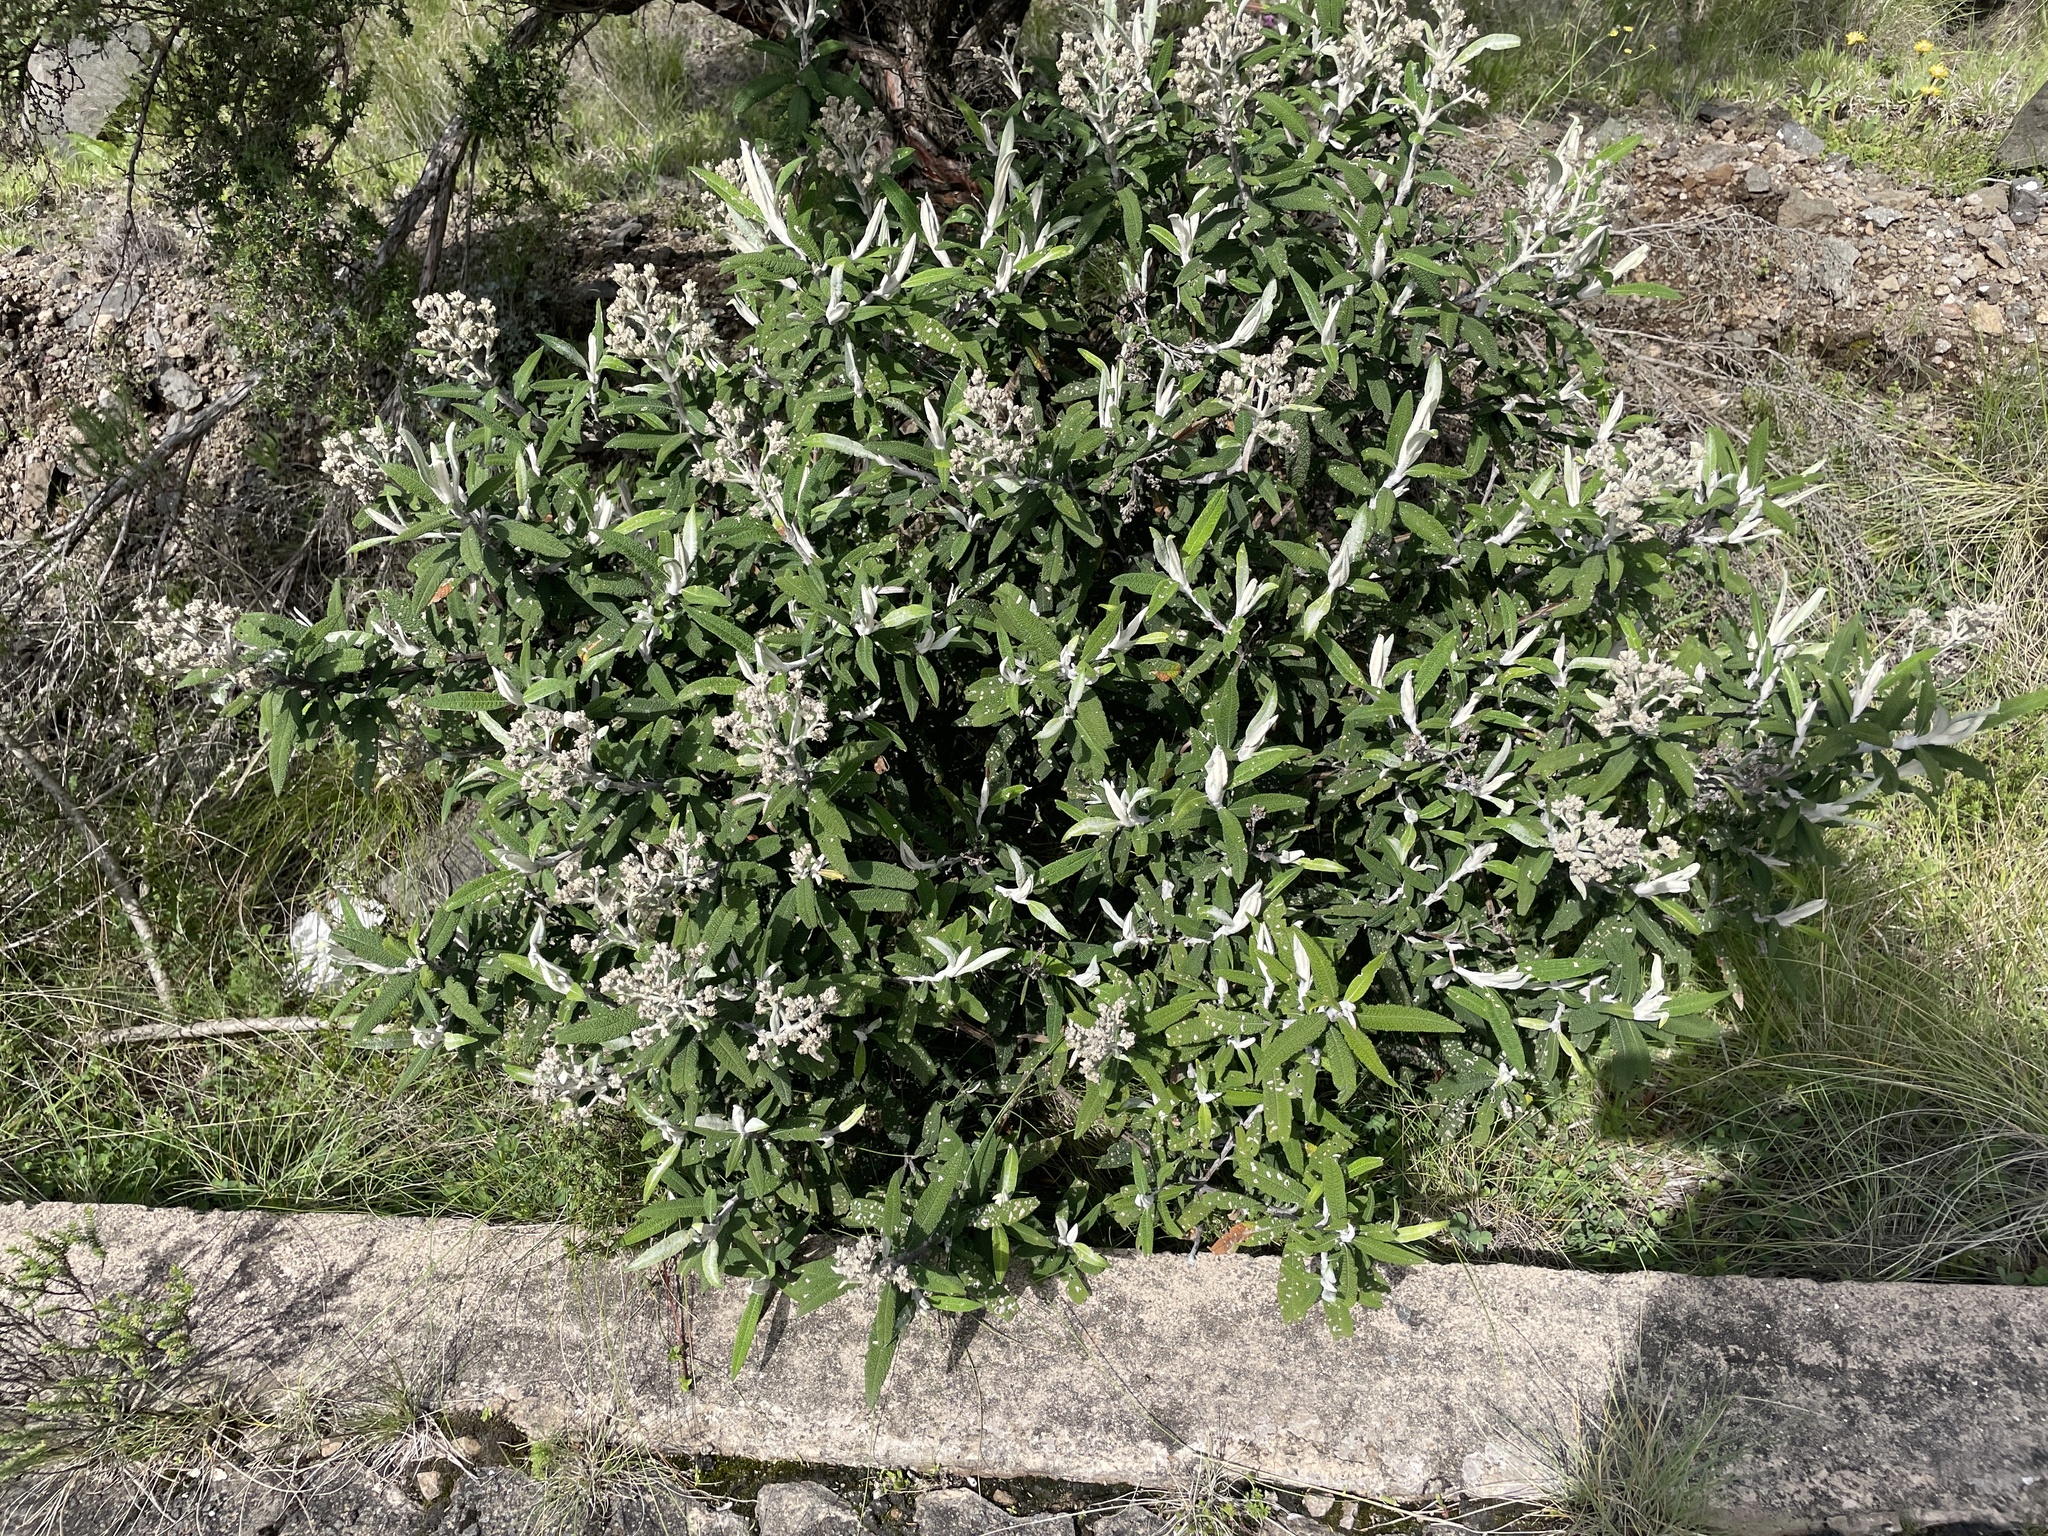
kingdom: Plantae
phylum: Tracheophyta
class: Magnoliopsida
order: Lamiales
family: Scrophulariaceae
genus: Buddleja
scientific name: Buddleja salviifolia
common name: Sagewood
